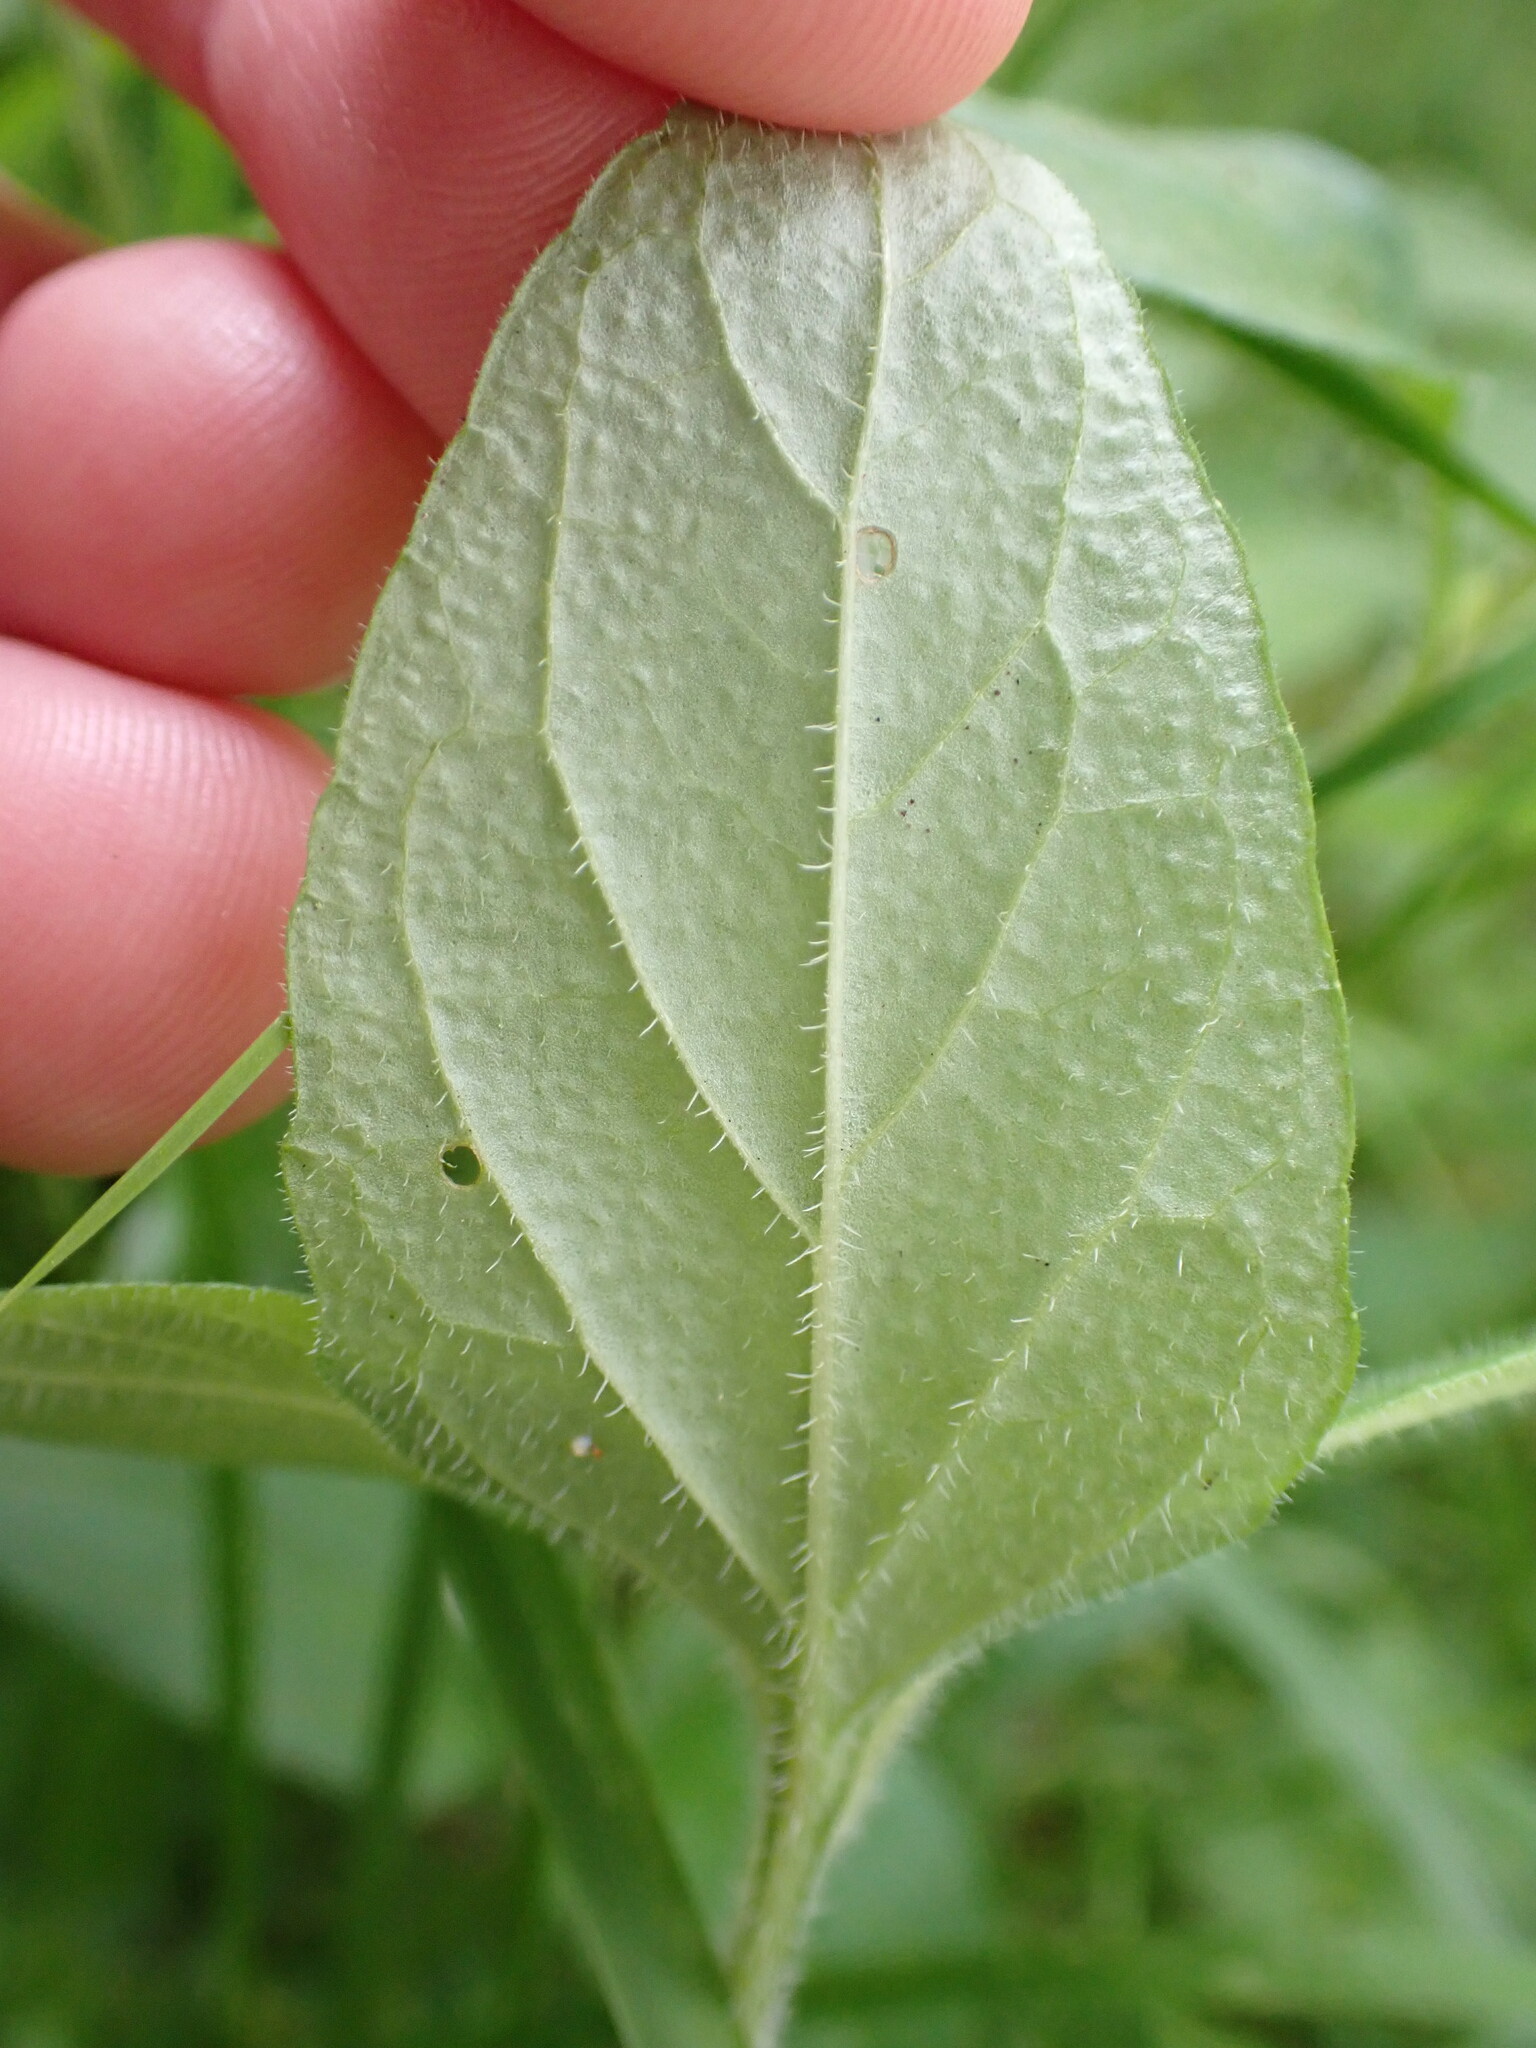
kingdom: Plantae
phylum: Tracheophyta
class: Magnoliopsida
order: Lamiales
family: Lamiaceae
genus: Prunella
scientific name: Prunella vulgaris
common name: Heal-all
